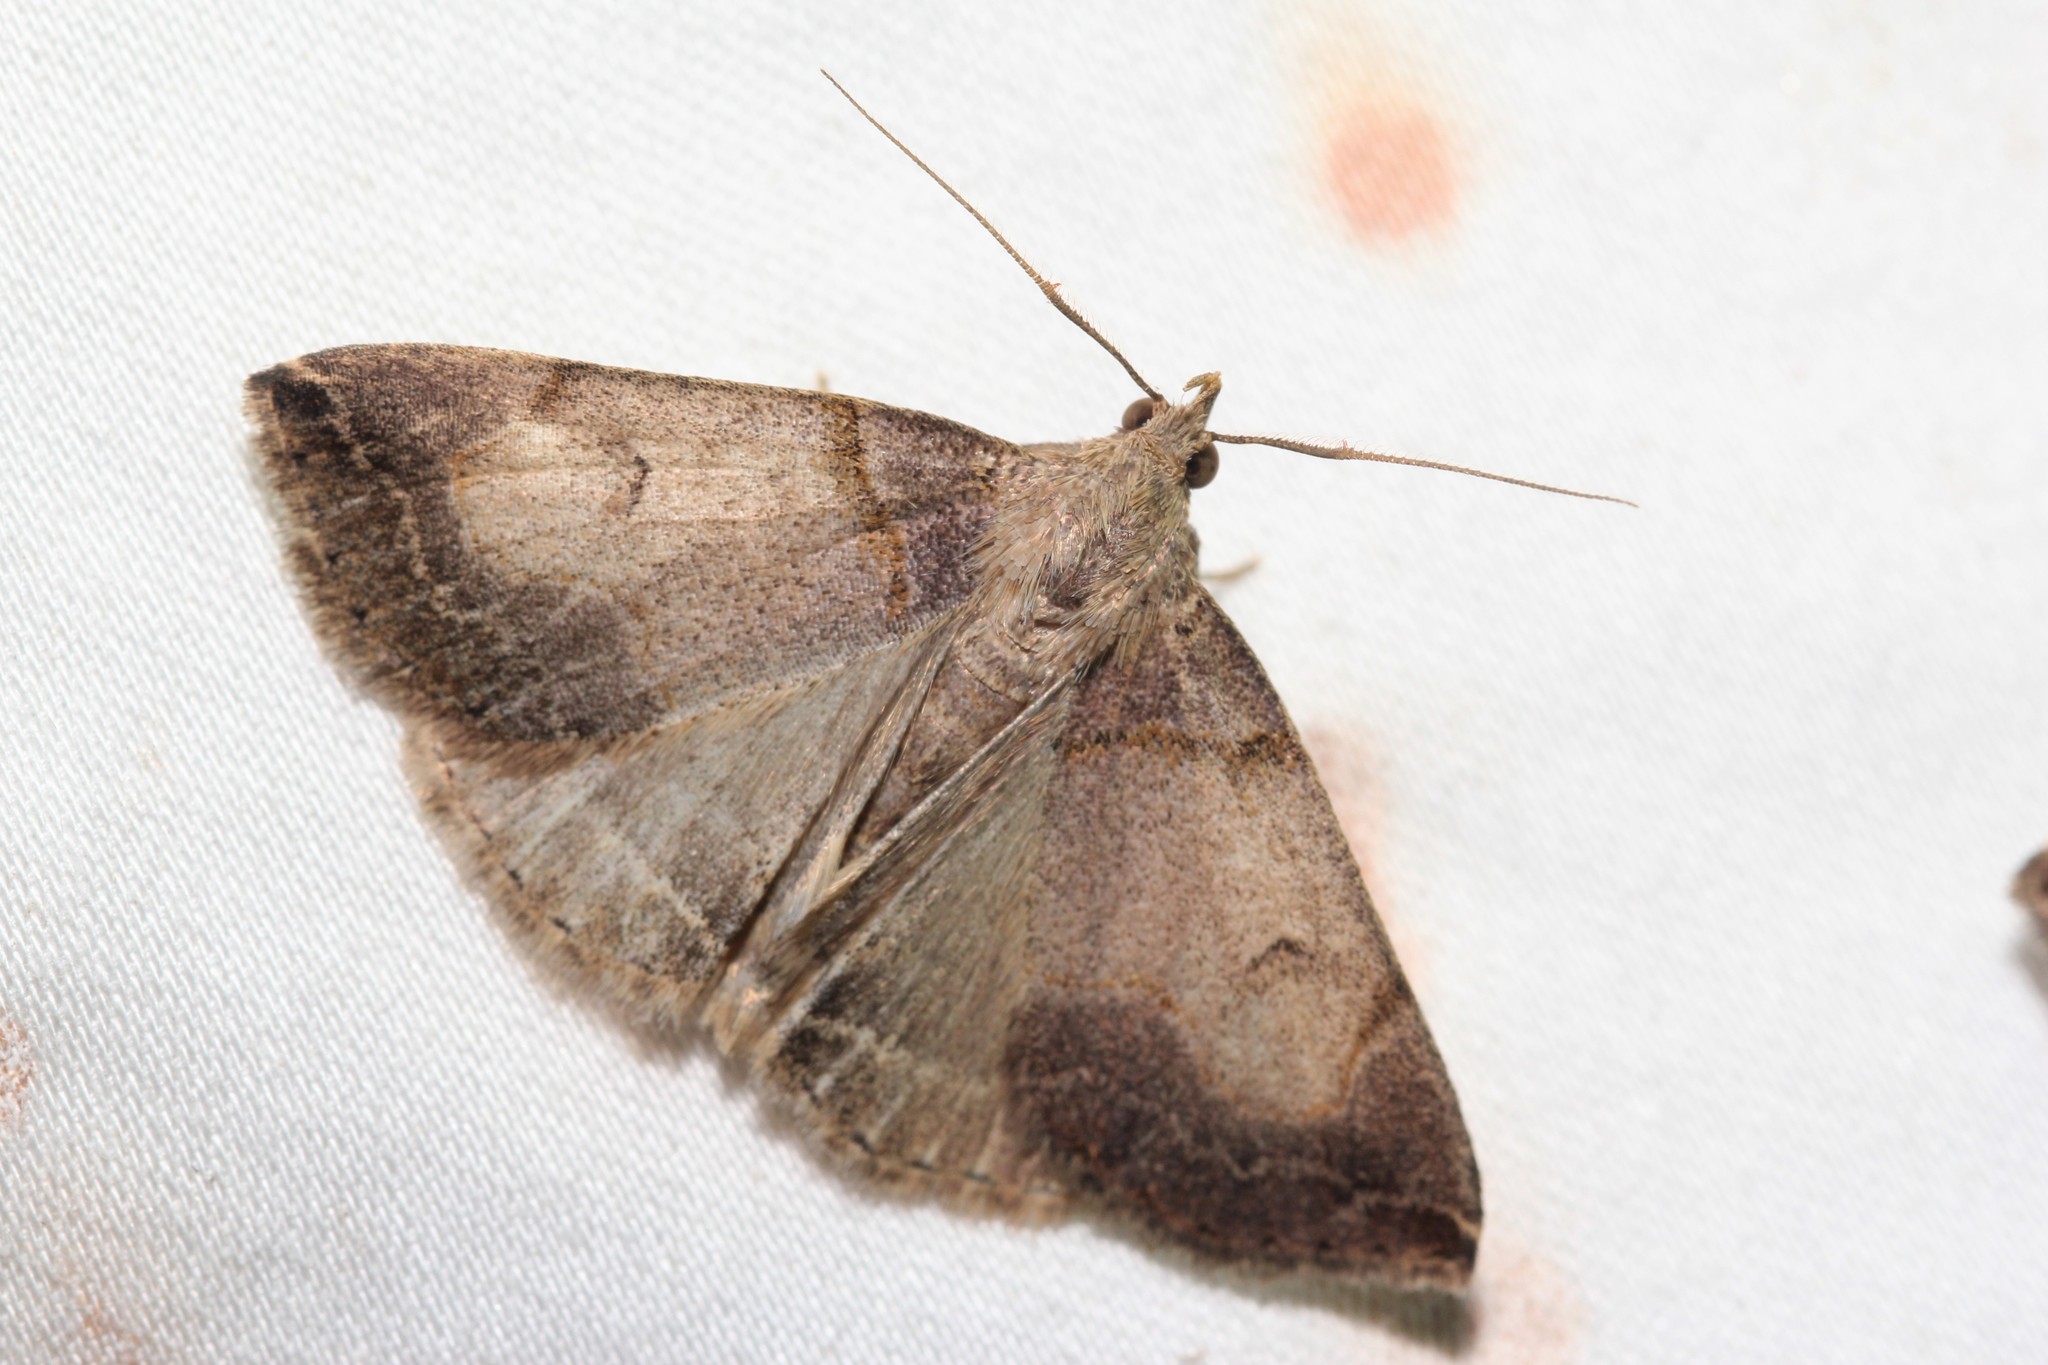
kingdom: Animalia
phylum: Arthropoda
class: Insecta
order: Lepidoptera
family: Erebidae
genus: Zanclognatha
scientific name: Zanclognatha laevigata
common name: Variable fan-foot
